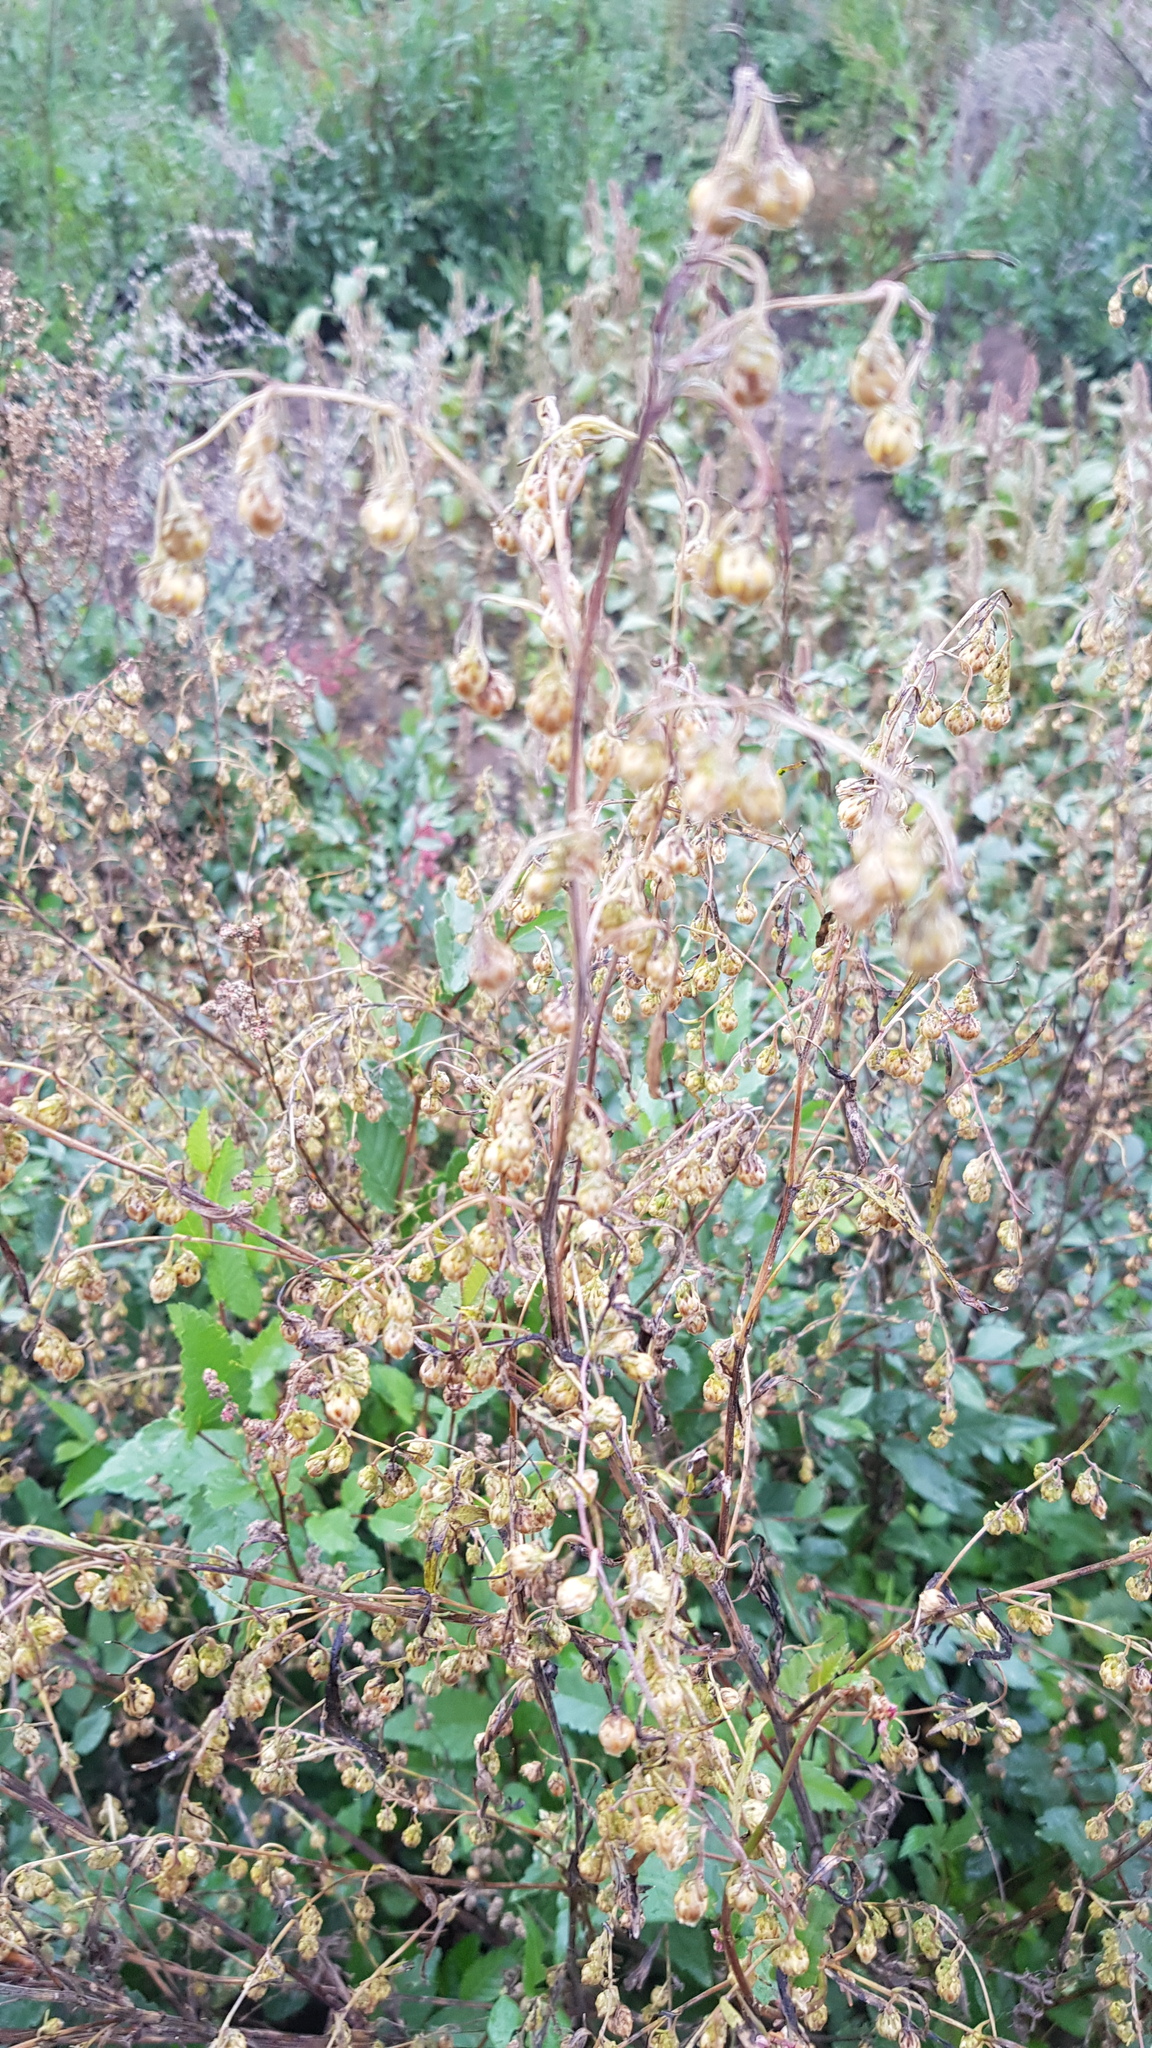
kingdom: Plantae
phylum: Tracheophyta
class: Magnoliopsida
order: Asterales
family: Asteraceae
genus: Artemisia
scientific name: Artemisia scoparia
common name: Redstem wormwood
